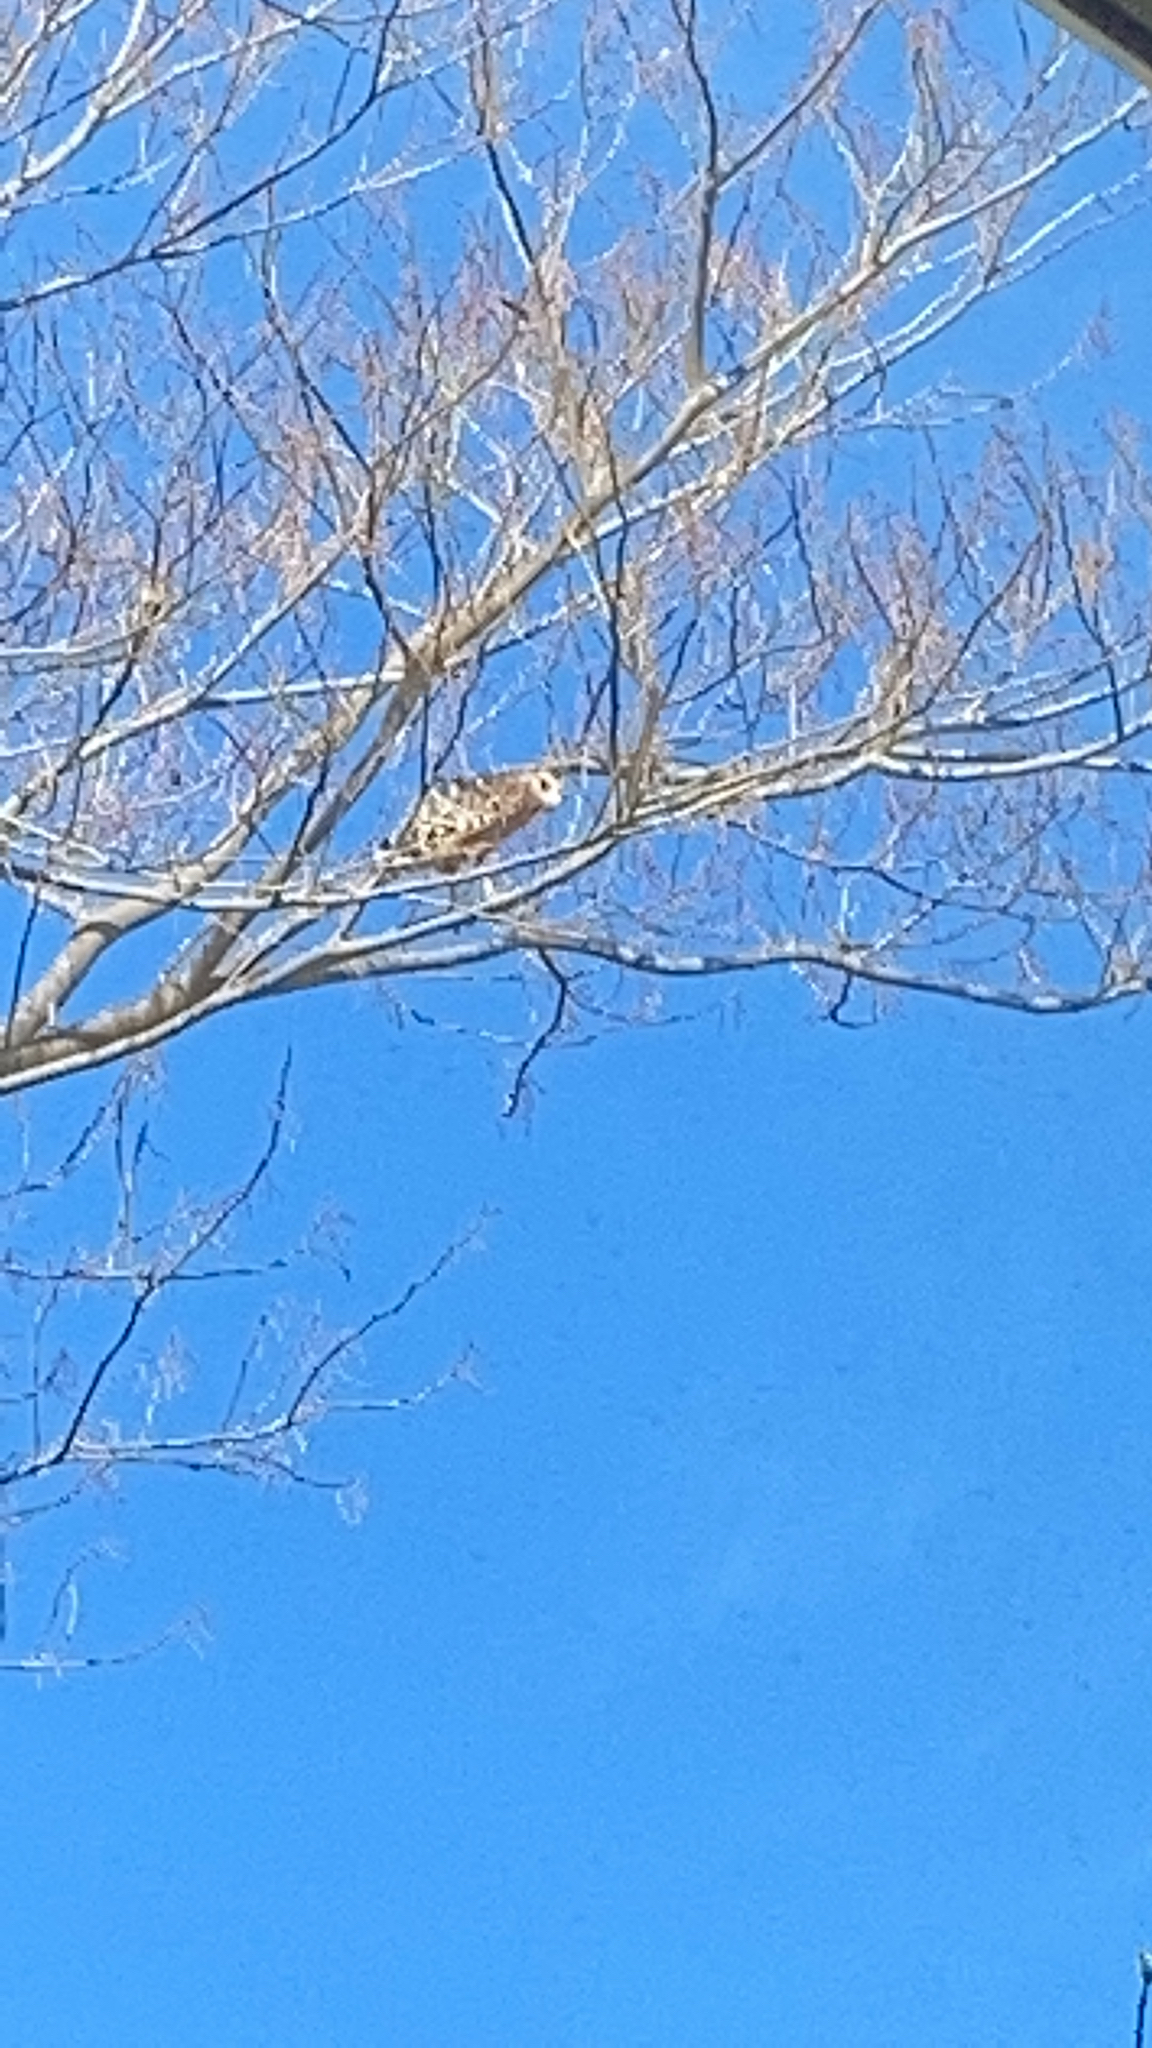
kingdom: Animalia
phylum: Chordata
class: Aves
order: Accipitriformes
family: Accipitridae
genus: Buteo
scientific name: Buteo lineatus
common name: Red-shouldered hawk
